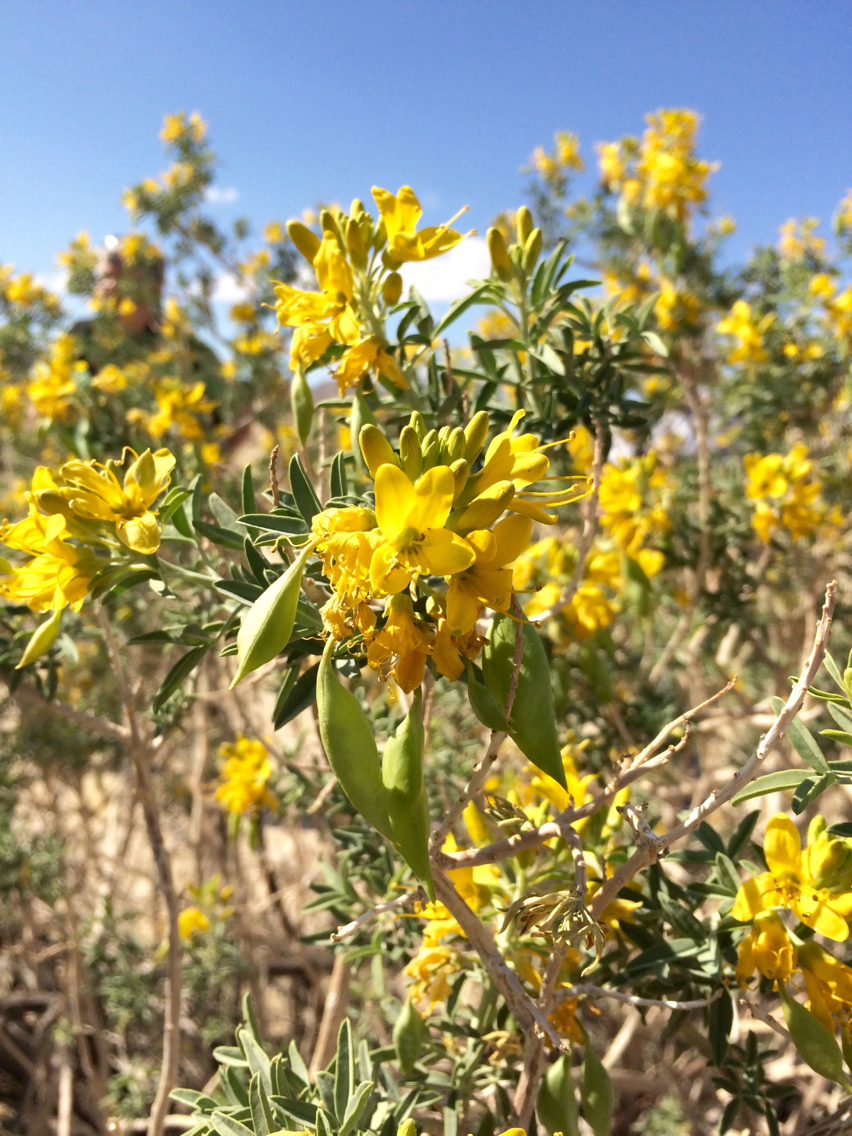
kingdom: Plantae
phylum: Tracheophyta
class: Magnoliopsida
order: Brassicales
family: Cleomaceae
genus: Cleomella
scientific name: Cleomella arborea
